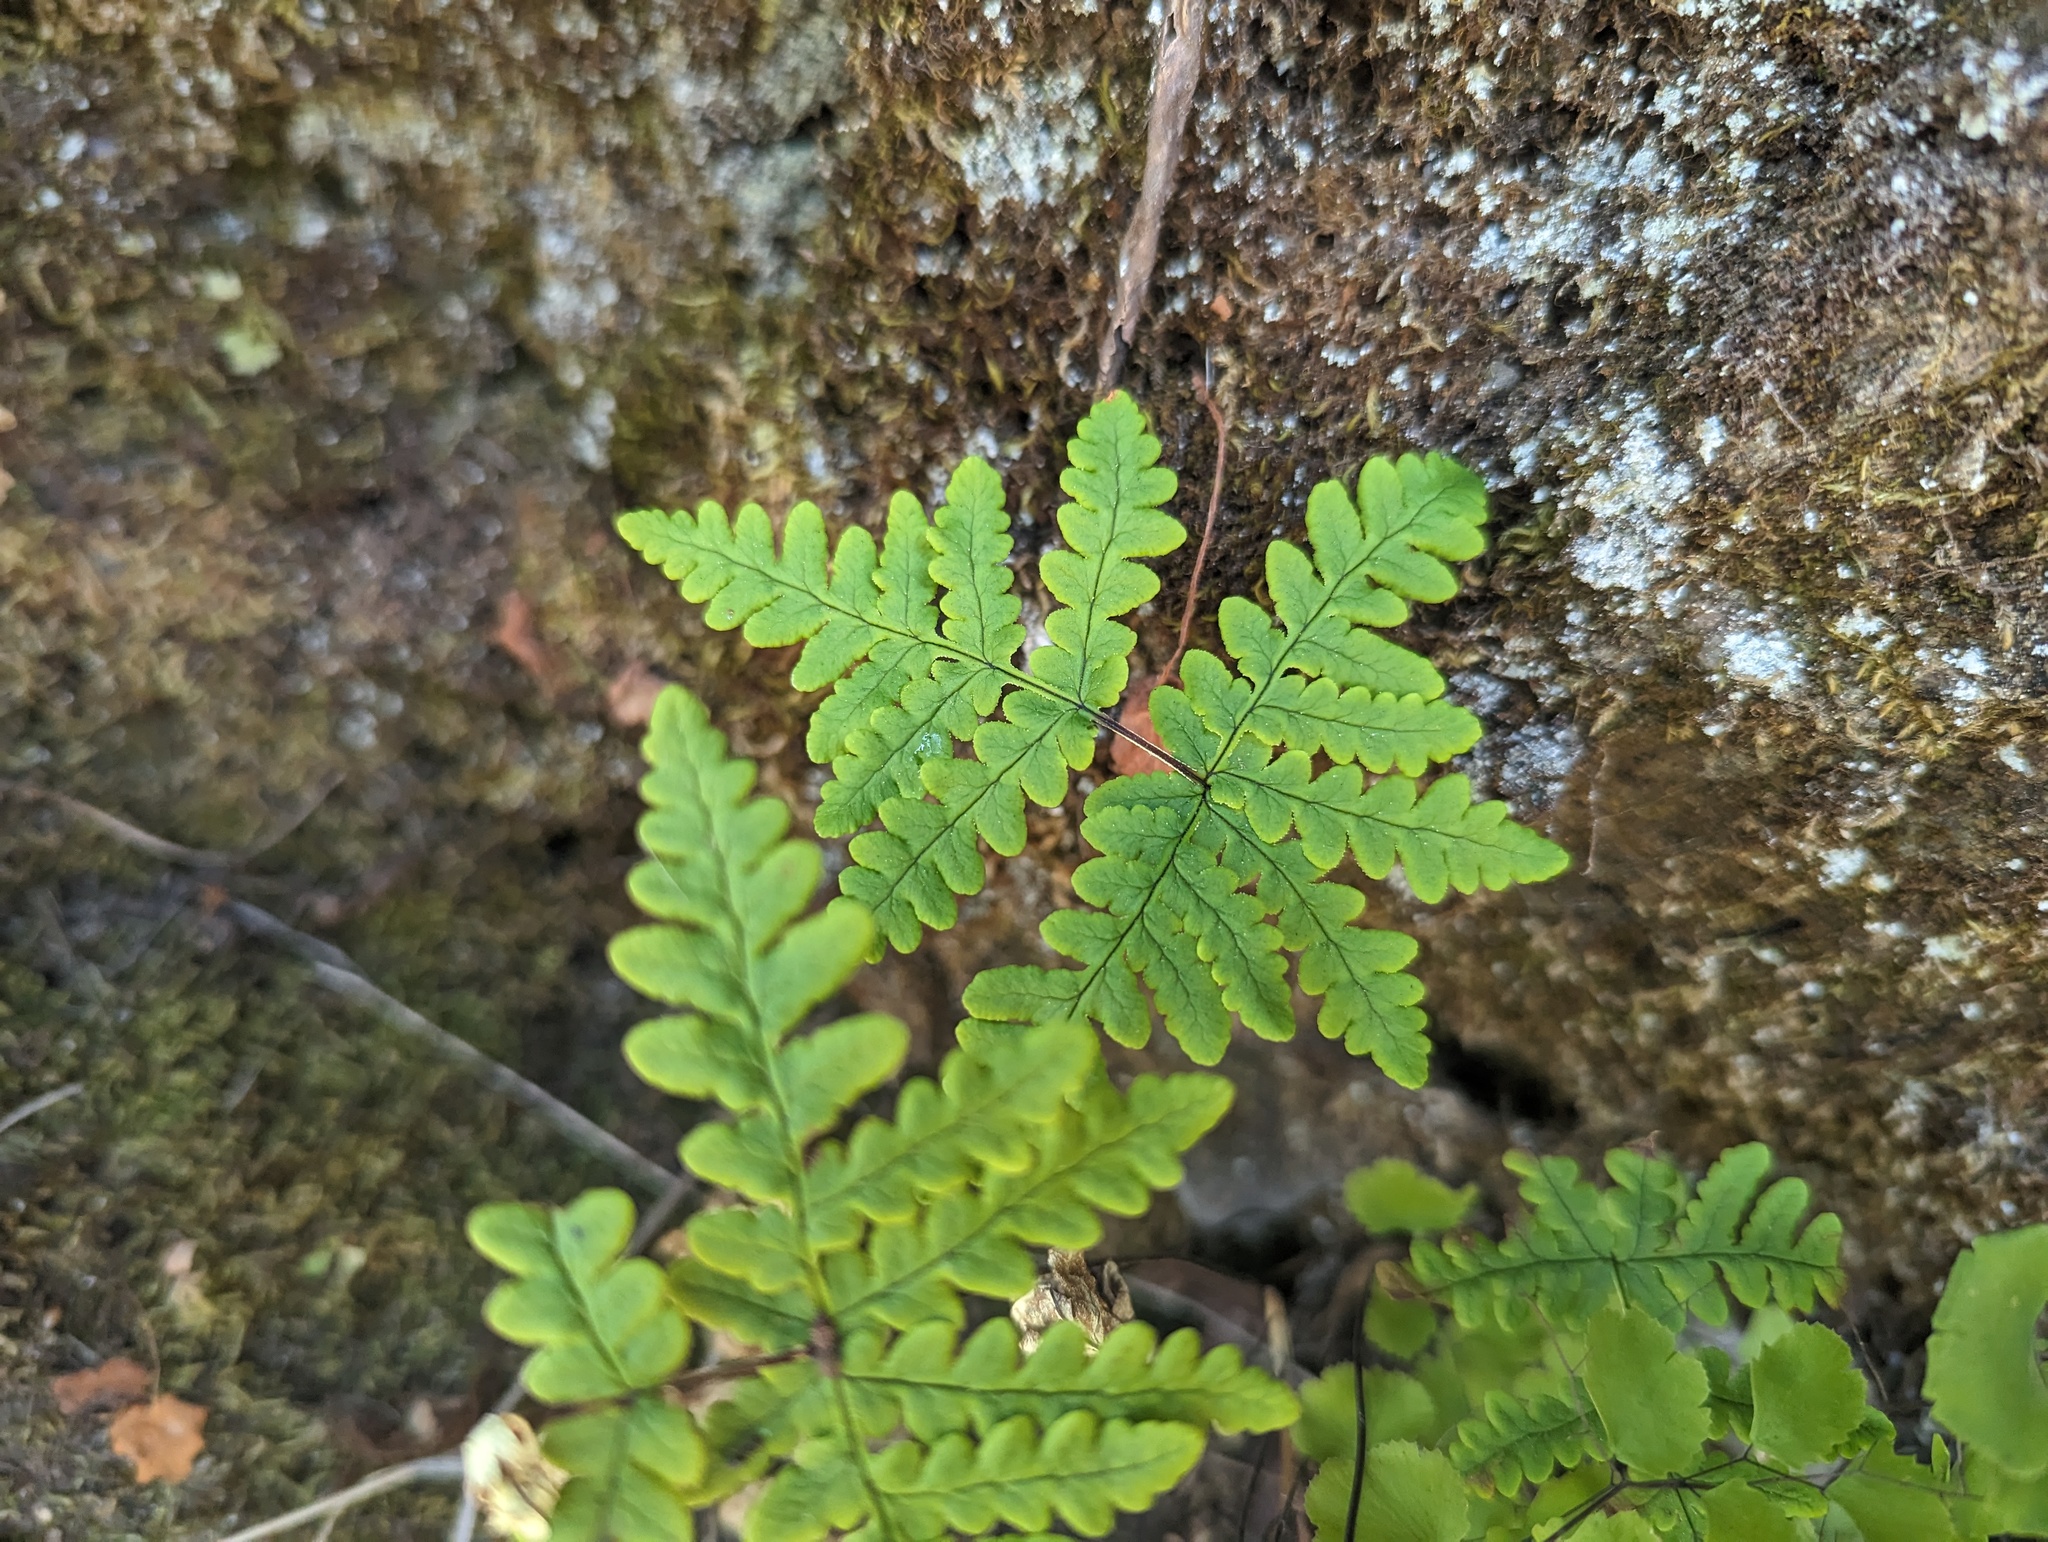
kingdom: Plantae
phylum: Tracheophyta
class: Polypodiopsida
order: Polypodiales
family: Pteridaceae
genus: Pentagramma
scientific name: Pentagramma triangularis
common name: Gold fern
